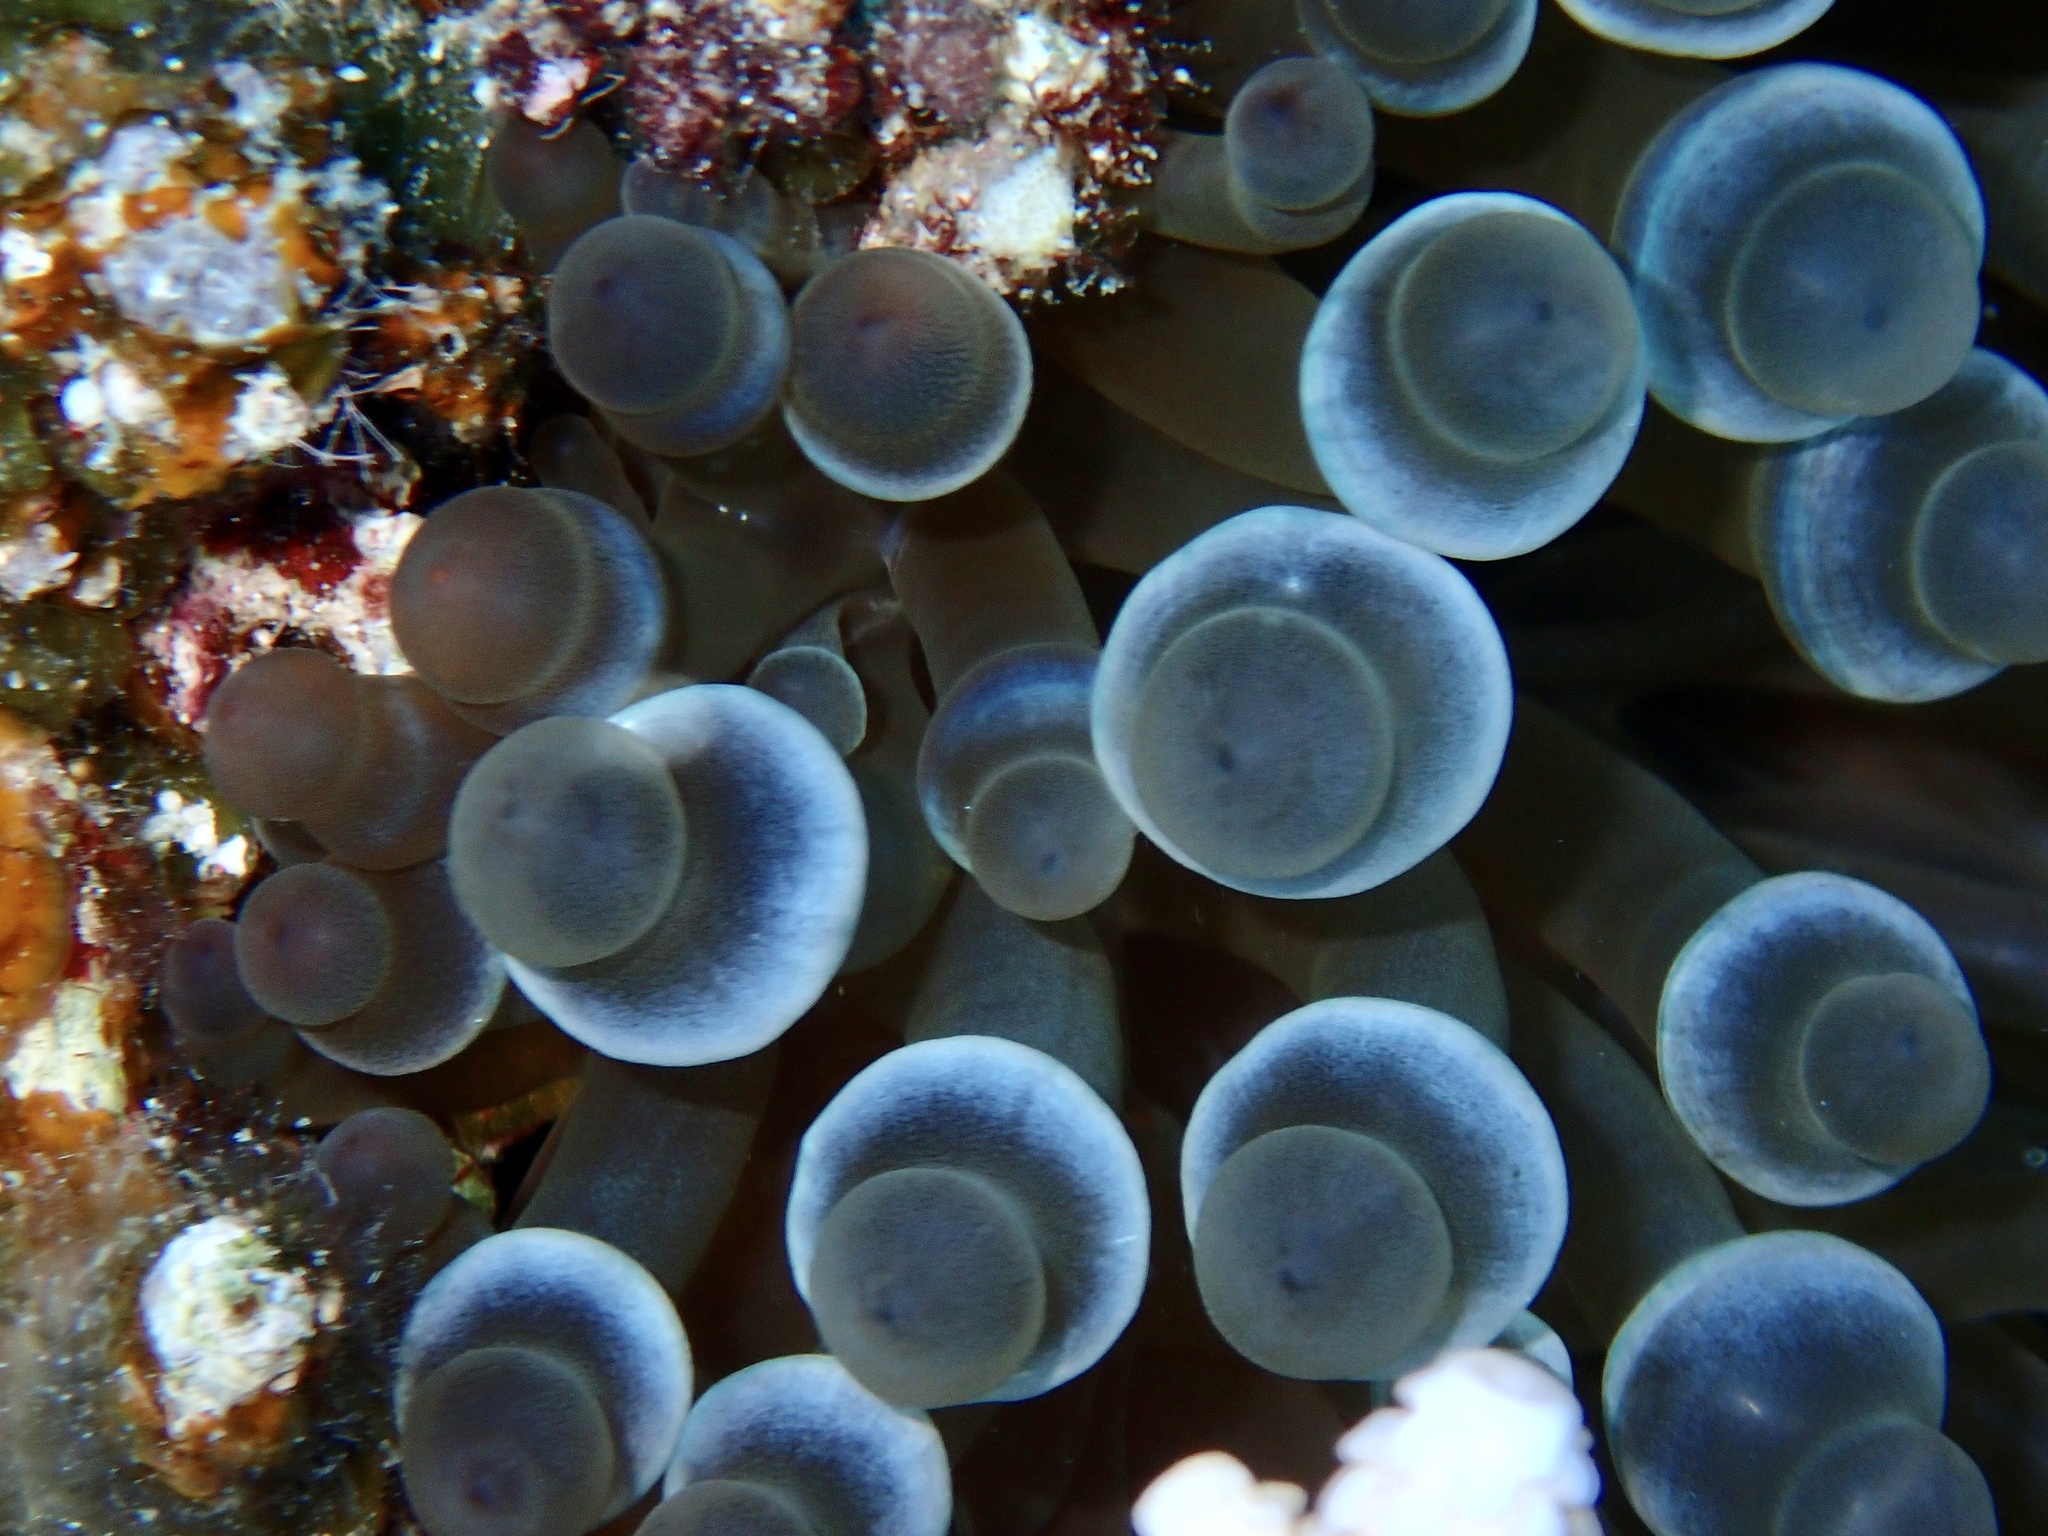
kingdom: Animalia
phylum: Cnidaria
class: Anthozoa
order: Actiniaria
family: Actiniidae
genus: Entacmaea
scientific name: Entacmaea quadricolor
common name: Bulb tentacle sea anemone
